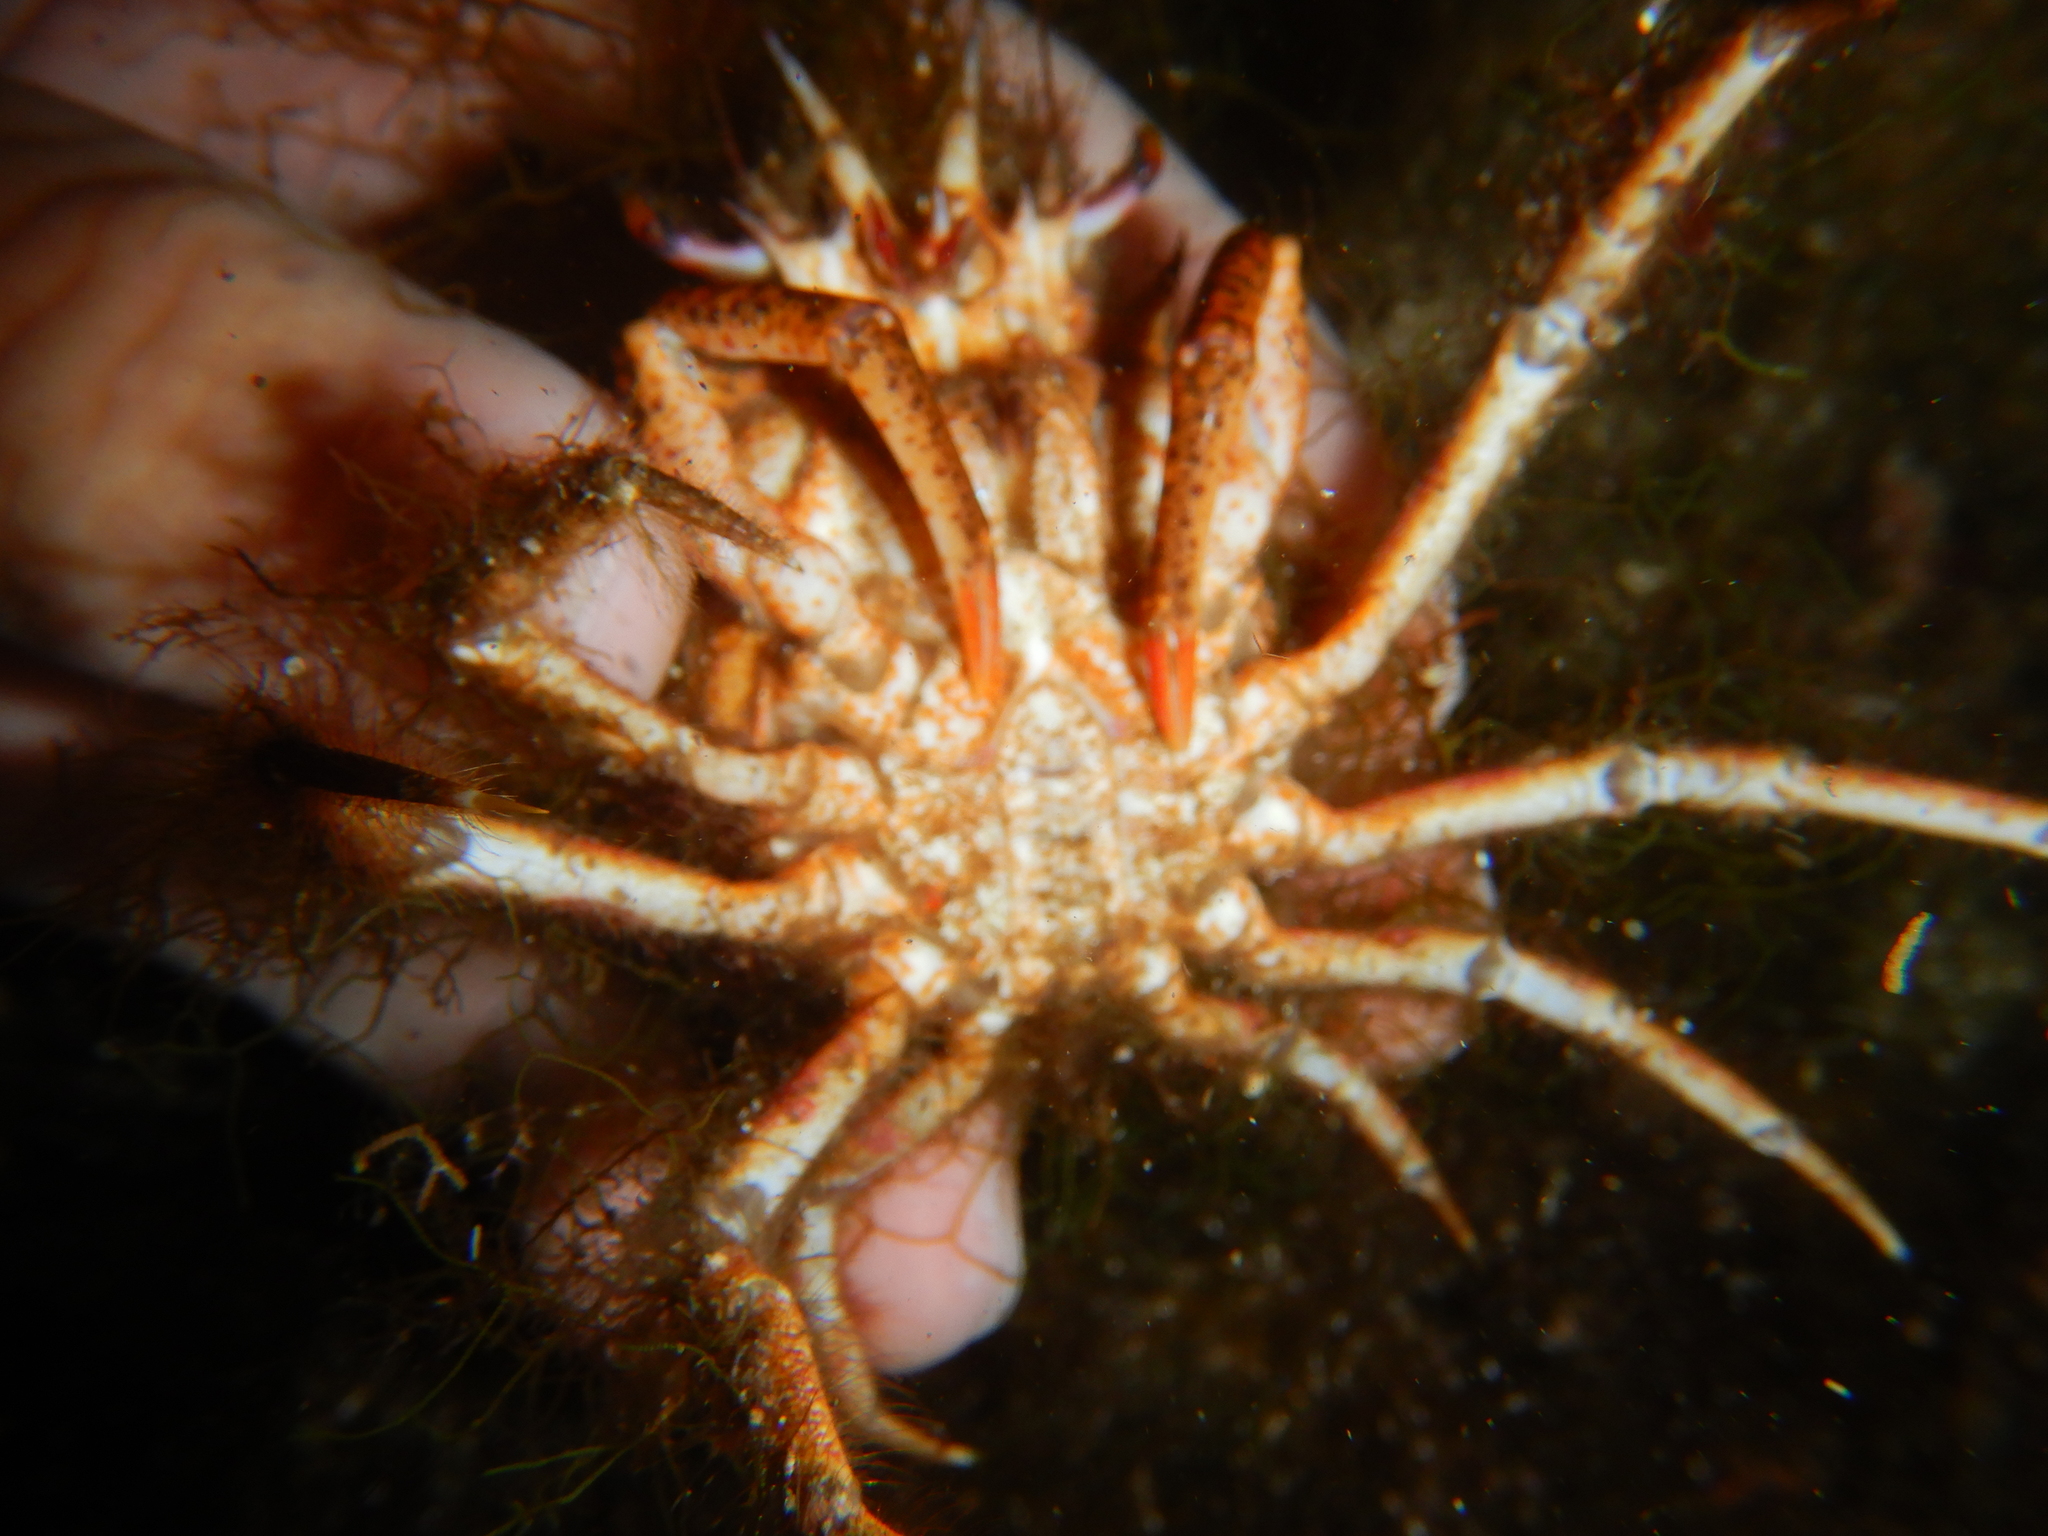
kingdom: Animalia
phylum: Arthropoda
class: Malacostraca
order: Decapoda
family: Majidae
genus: Maja
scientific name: Maja crispata
